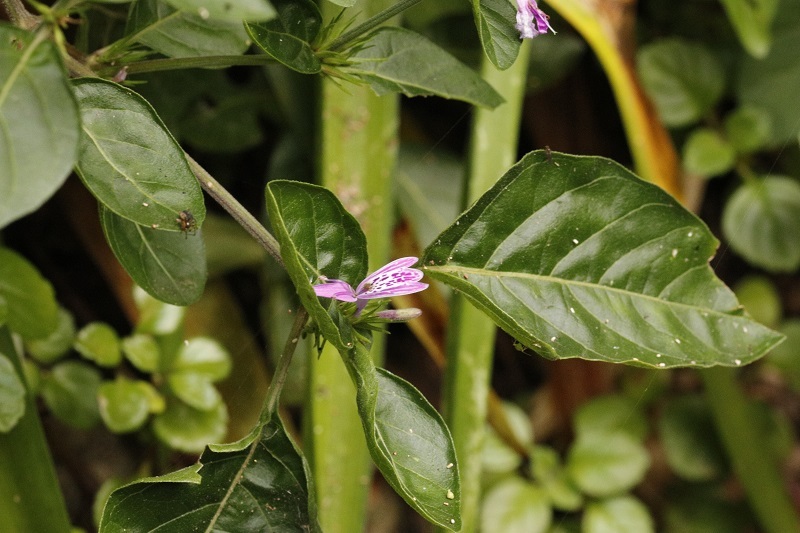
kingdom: Plantae
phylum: Tracheophyta
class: Magnoliopsida
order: Lamiales
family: Acanthaceae
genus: Hypoestes
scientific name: Hypoestes aristata
